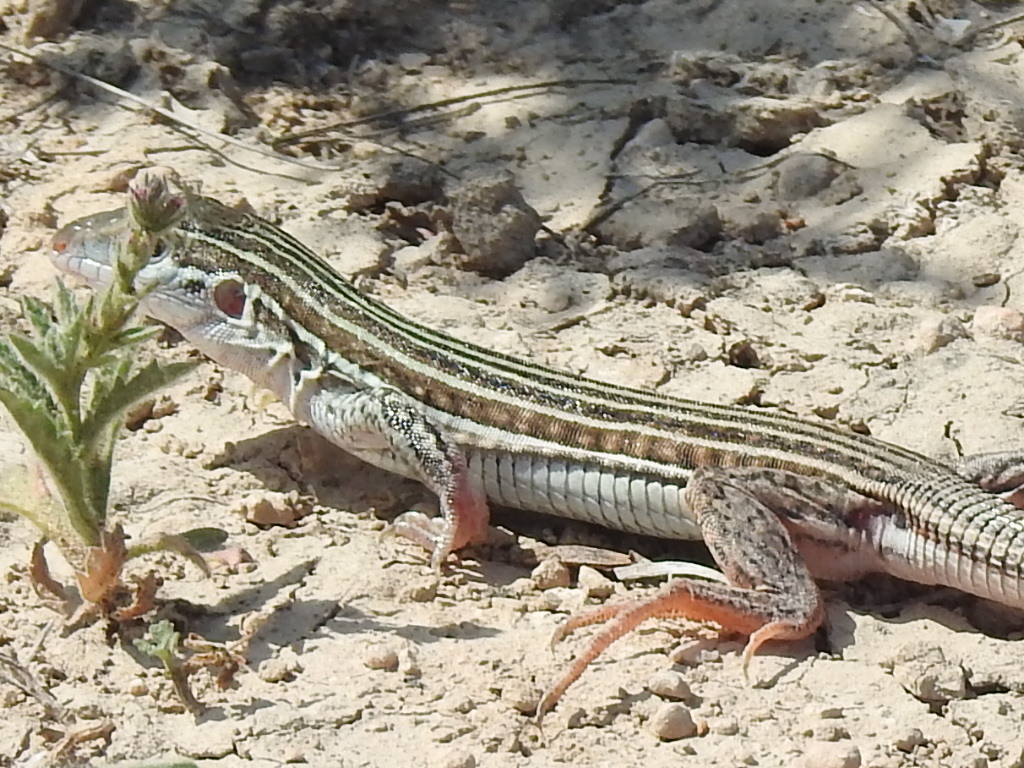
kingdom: Animalia
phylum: Chordata
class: Squamata
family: Teiidae
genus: Aspidoscelis
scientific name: Aspidoscelis gularis
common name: Eastern spotted whiptail
